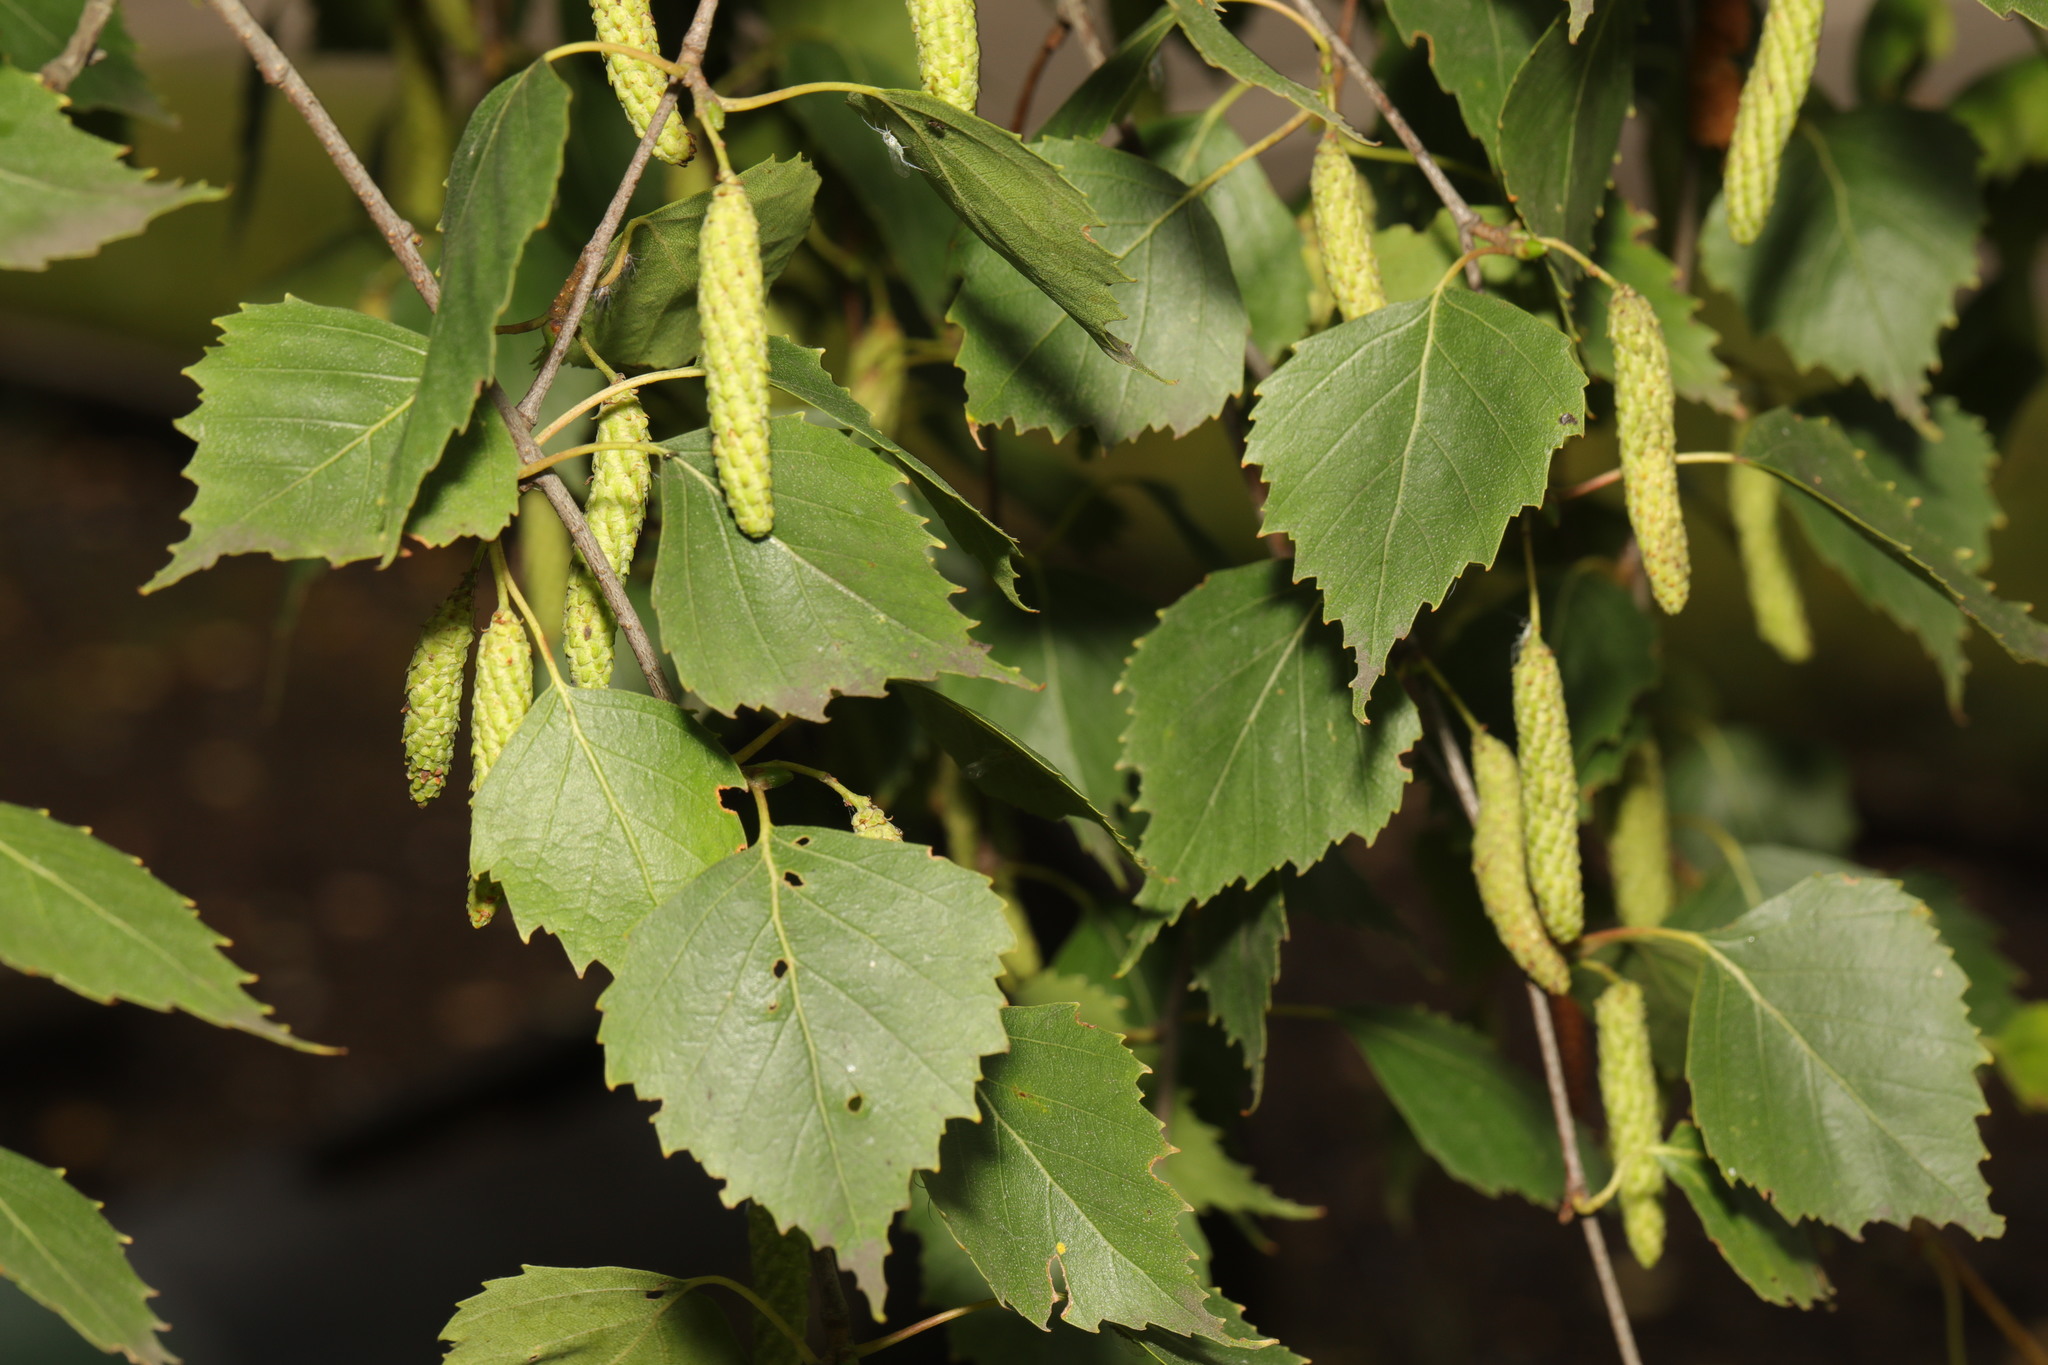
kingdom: Plantae
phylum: Tracheophyta
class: Magnoliopsida
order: Fagales
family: Betulaceae
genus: Betula
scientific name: Betula pendula
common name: Silver birch
